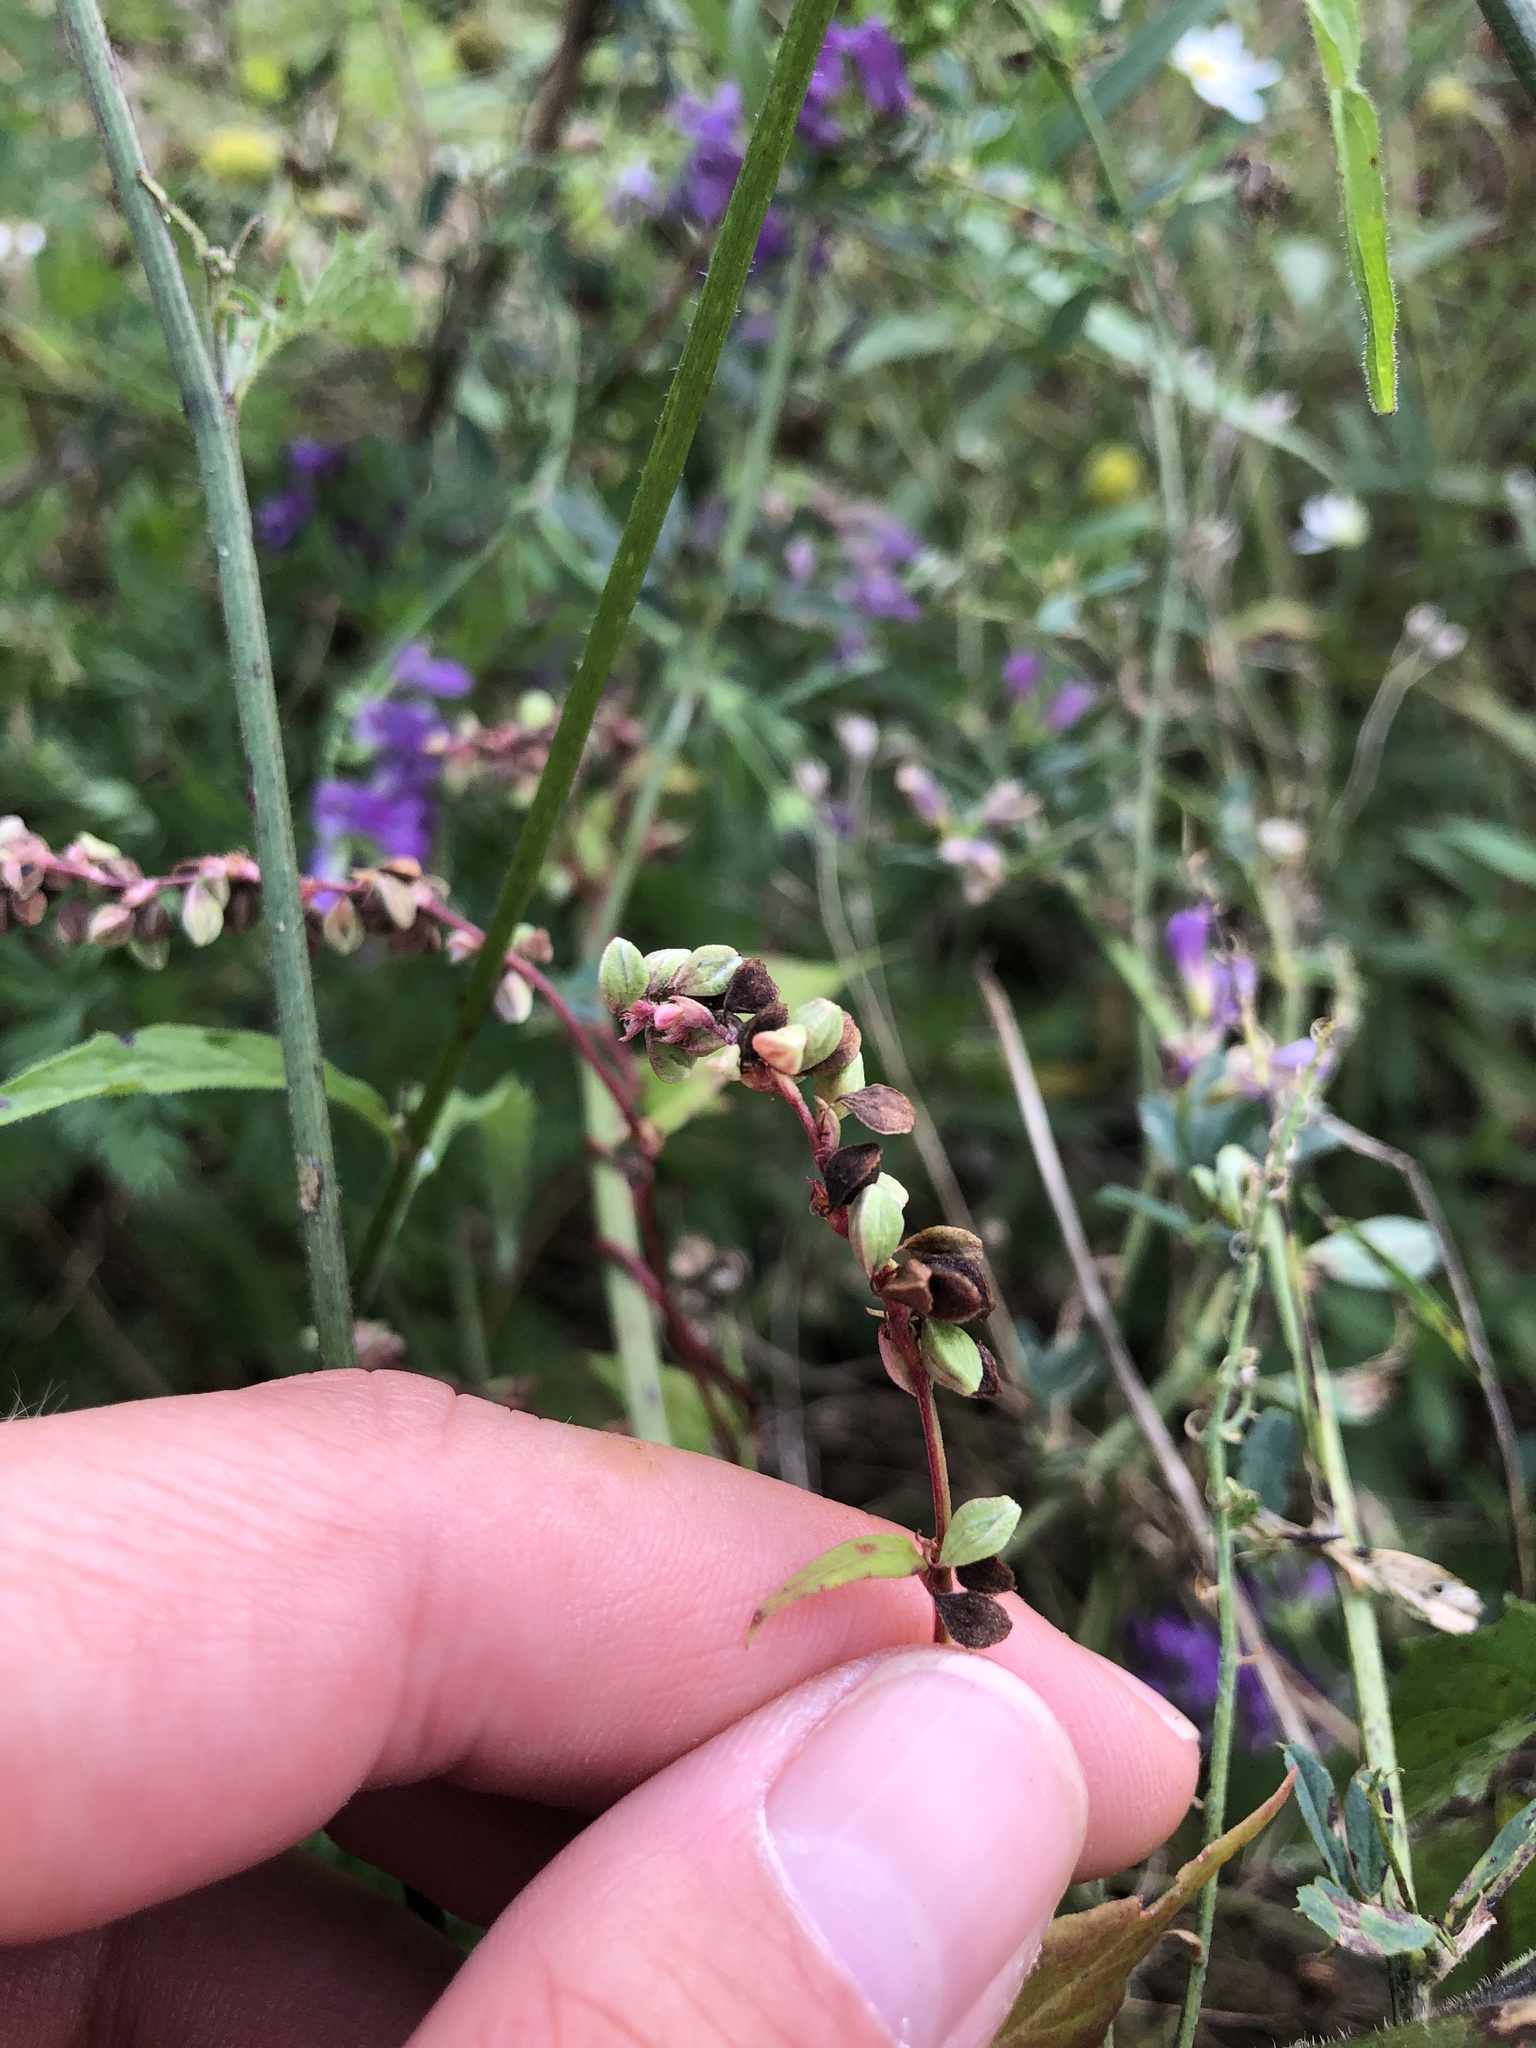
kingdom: Plantae
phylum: Tracheophyta
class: Magnoliopsida
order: Caryophyllales
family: Polygonaceae
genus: Fallopia
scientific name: Fallopia convolvulus
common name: Black bindweed
